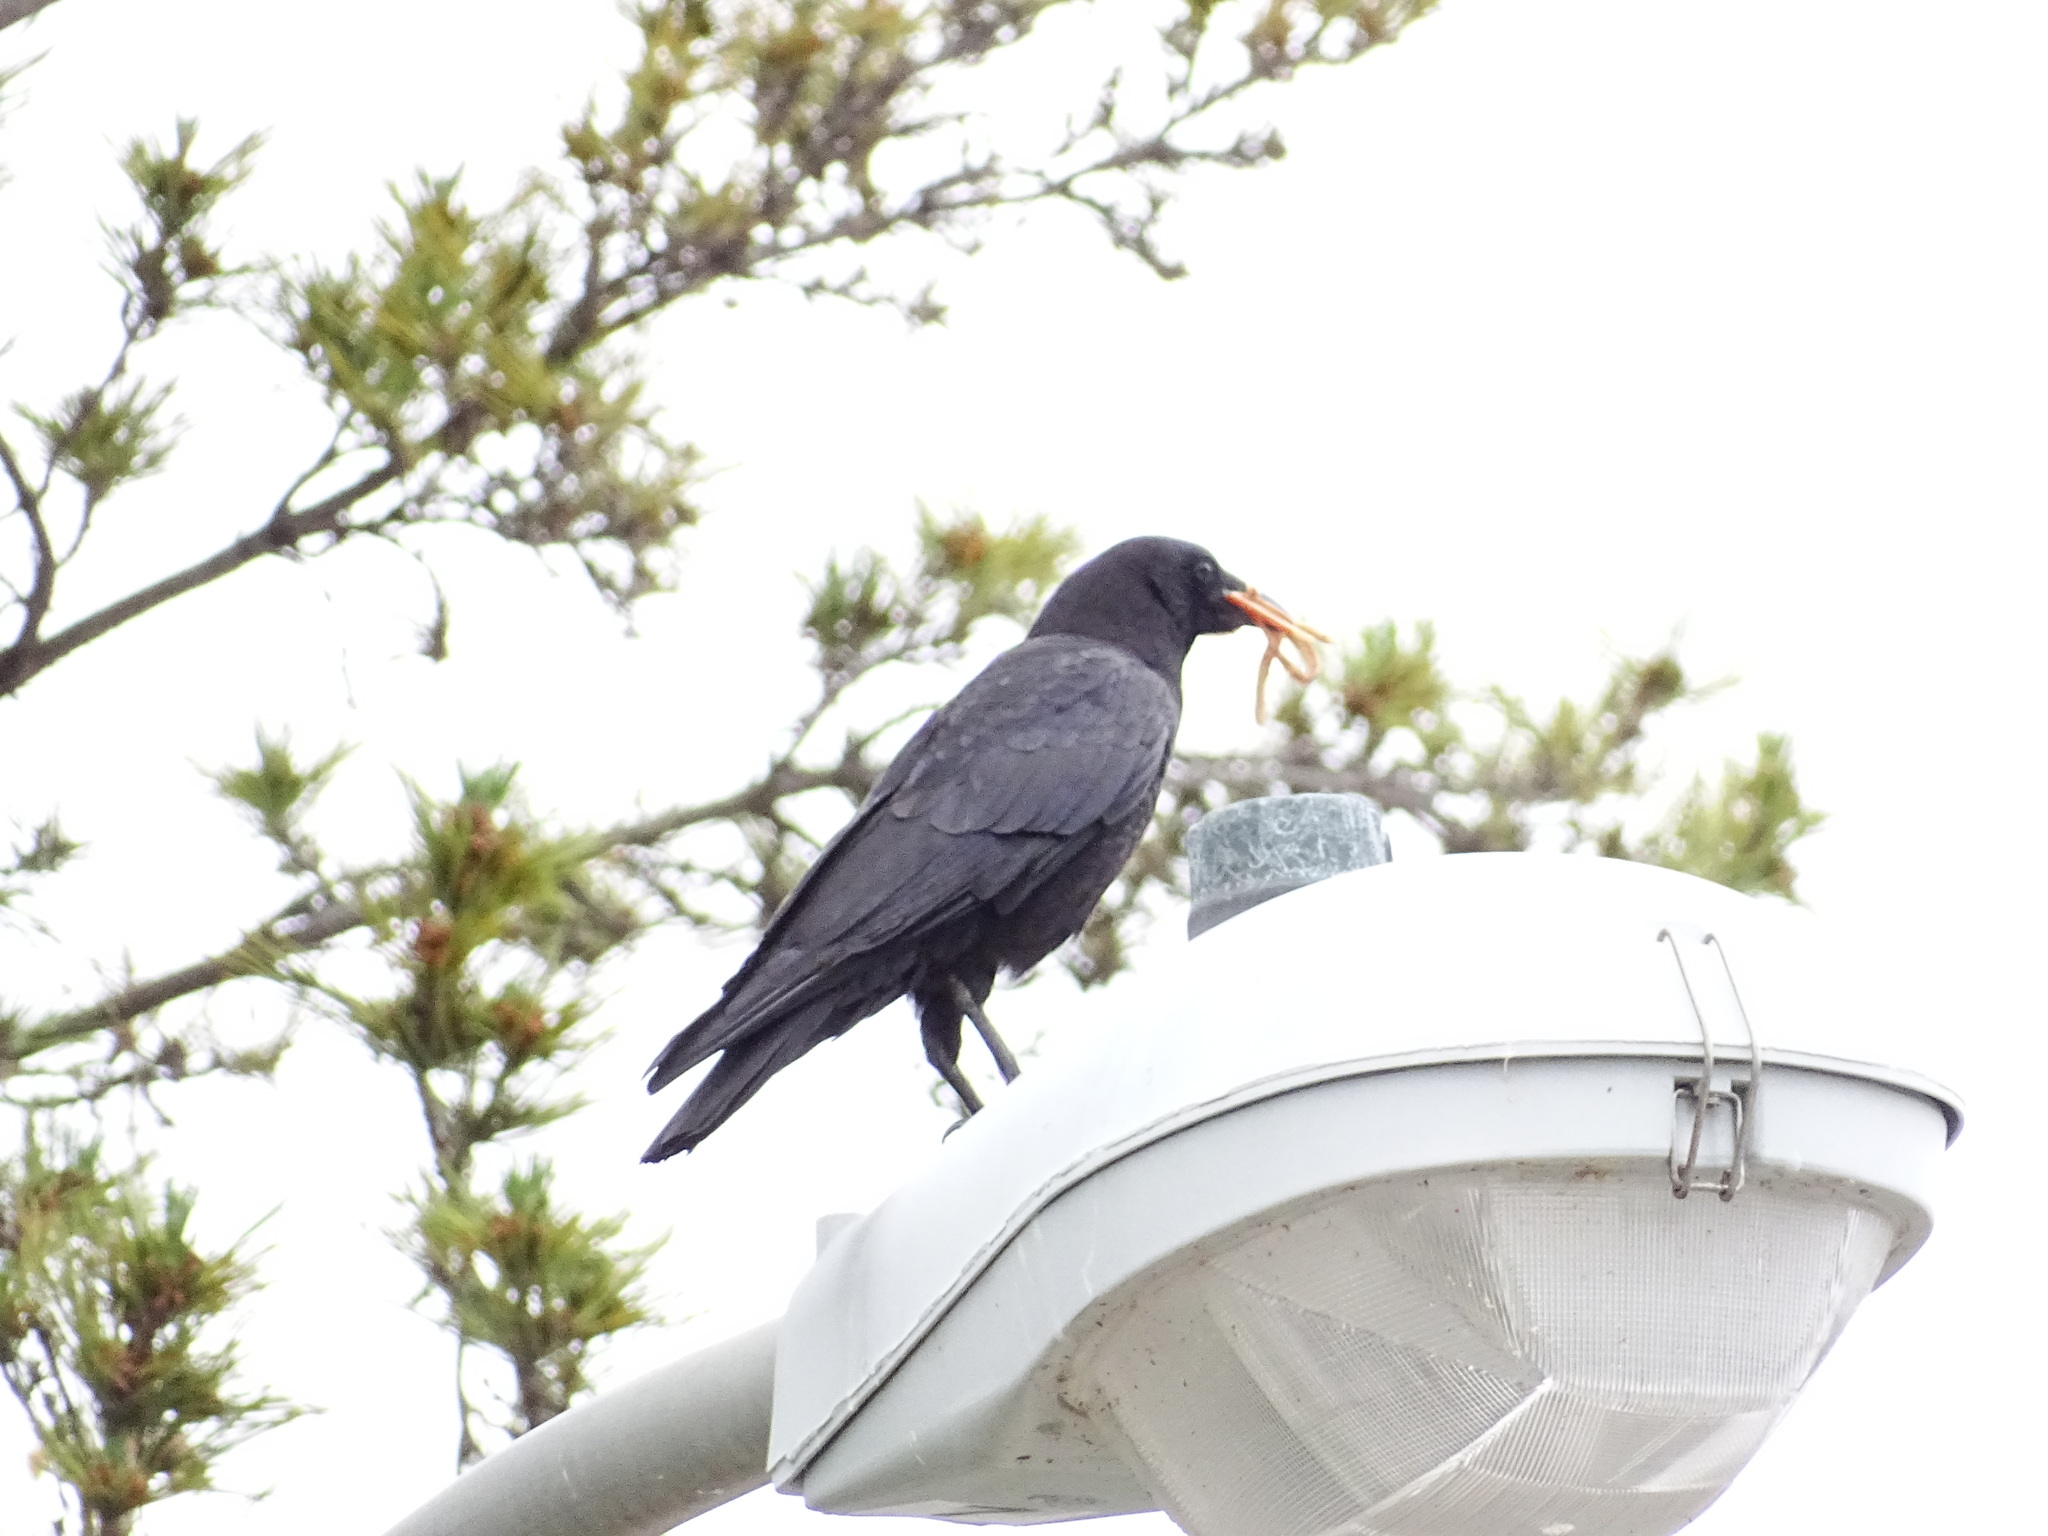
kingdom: Animalia
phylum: Chordata
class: Aves
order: Passeriformes
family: Corvidae
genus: Corvus
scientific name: Corvus brachyrhynchos
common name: American crow
